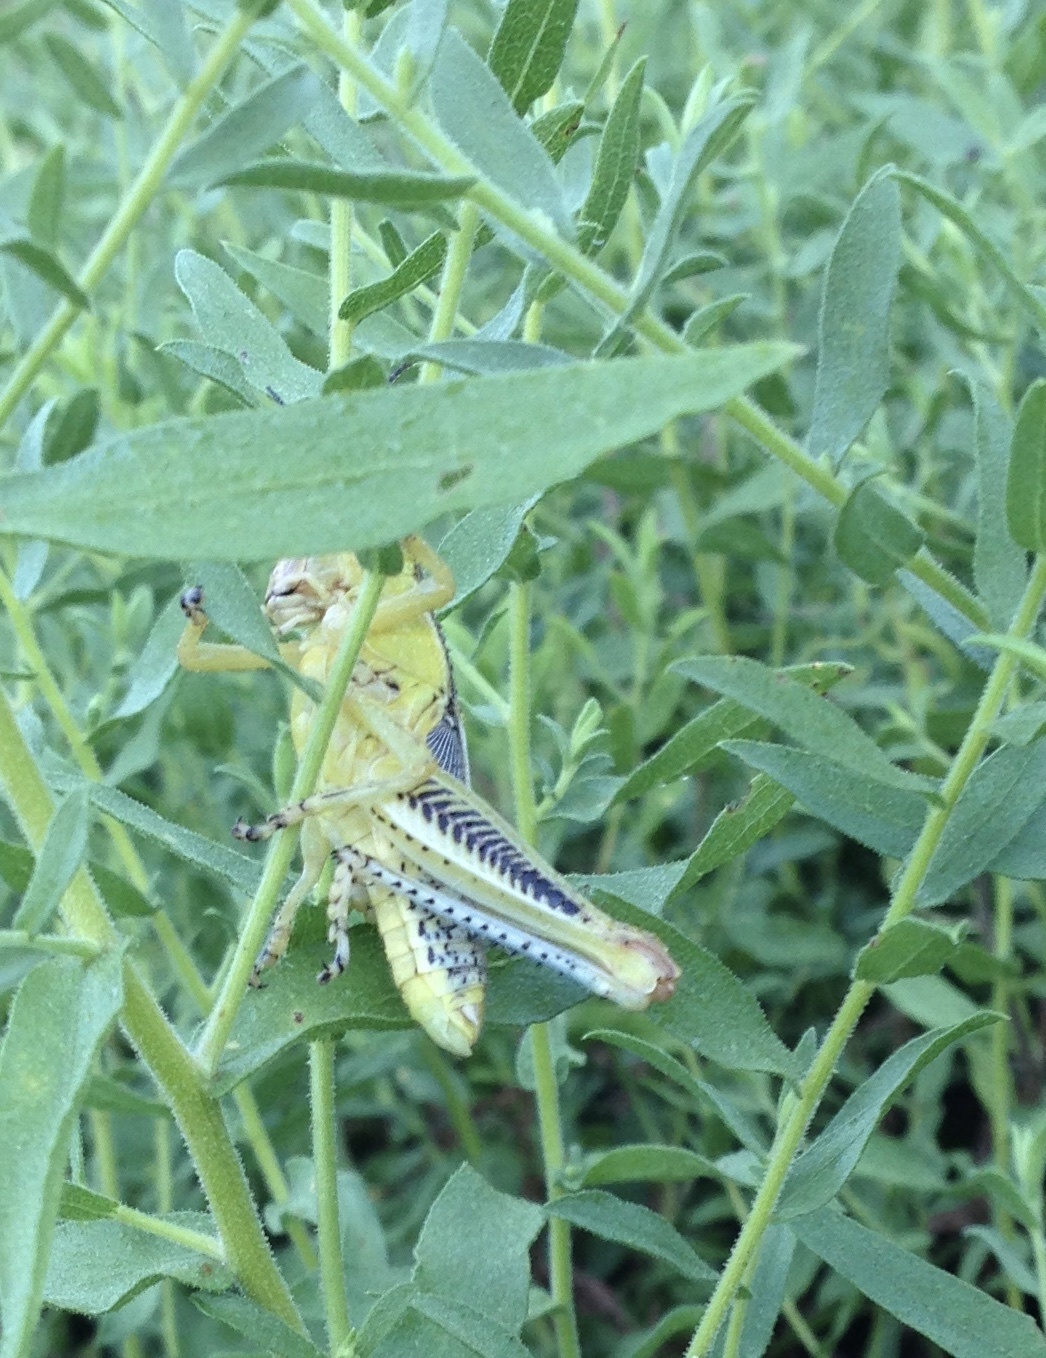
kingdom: Animalia
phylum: Arthropoda
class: Insecta
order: Orthoptera
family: Acrididae
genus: Melanoplus
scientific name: Melanoplus differentialis
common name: Differential grasshopper
